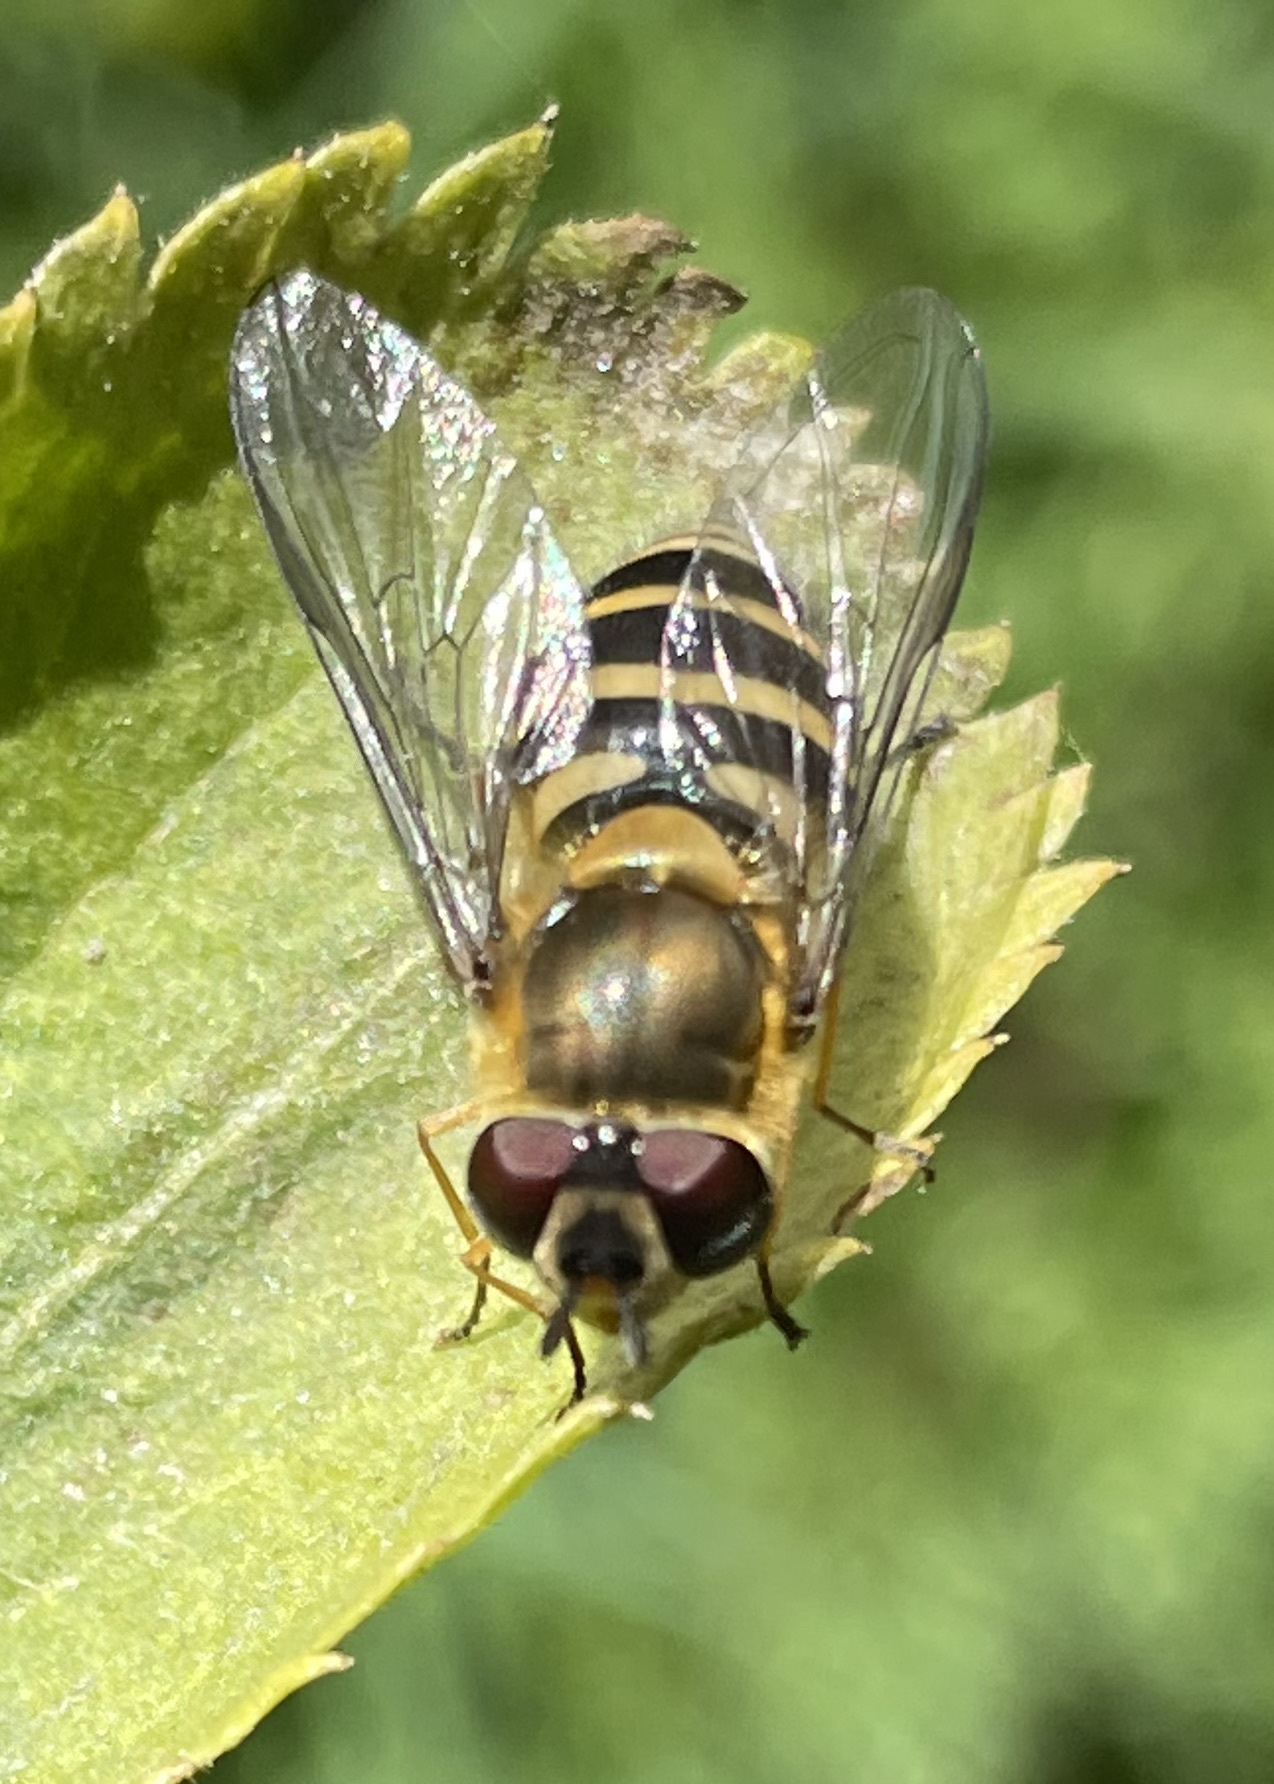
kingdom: Animalia
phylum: Arthropoda
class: Insecta
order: Diptera
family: Syrphidae
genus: Syrphus
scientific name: Syrphus
